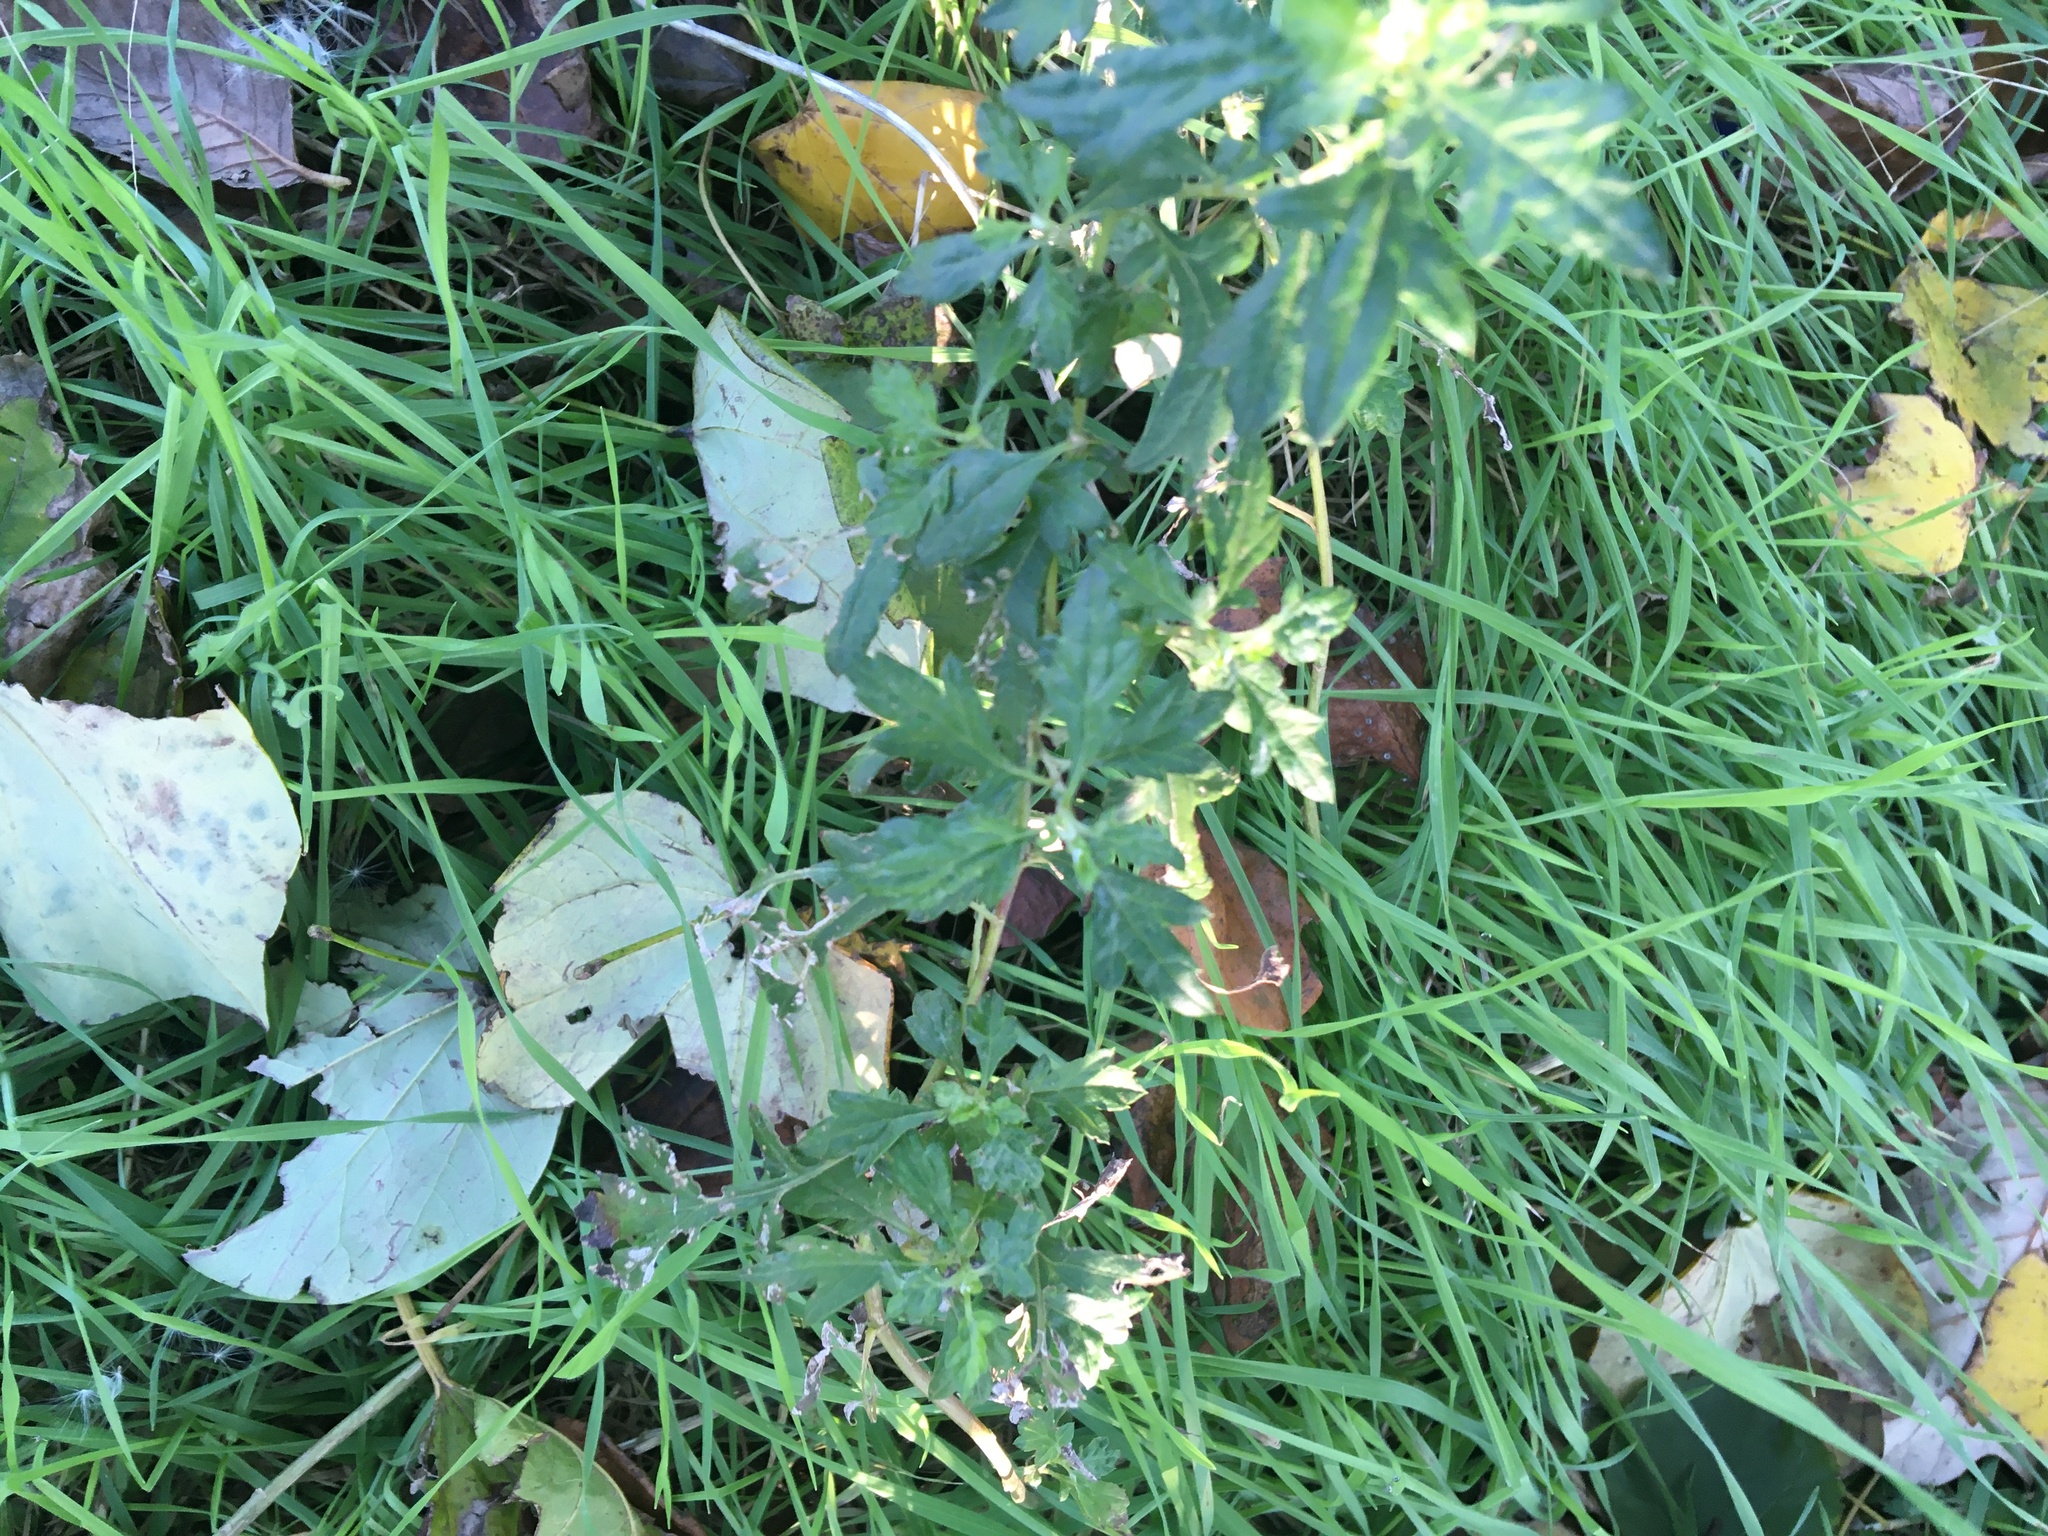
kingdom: Plantae
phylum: Tracheophyta
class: Magnoliopsida
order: Asterales
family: Asteraceae
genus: Artemisia
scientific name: Artemisia vulgaris
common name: Mugwort
